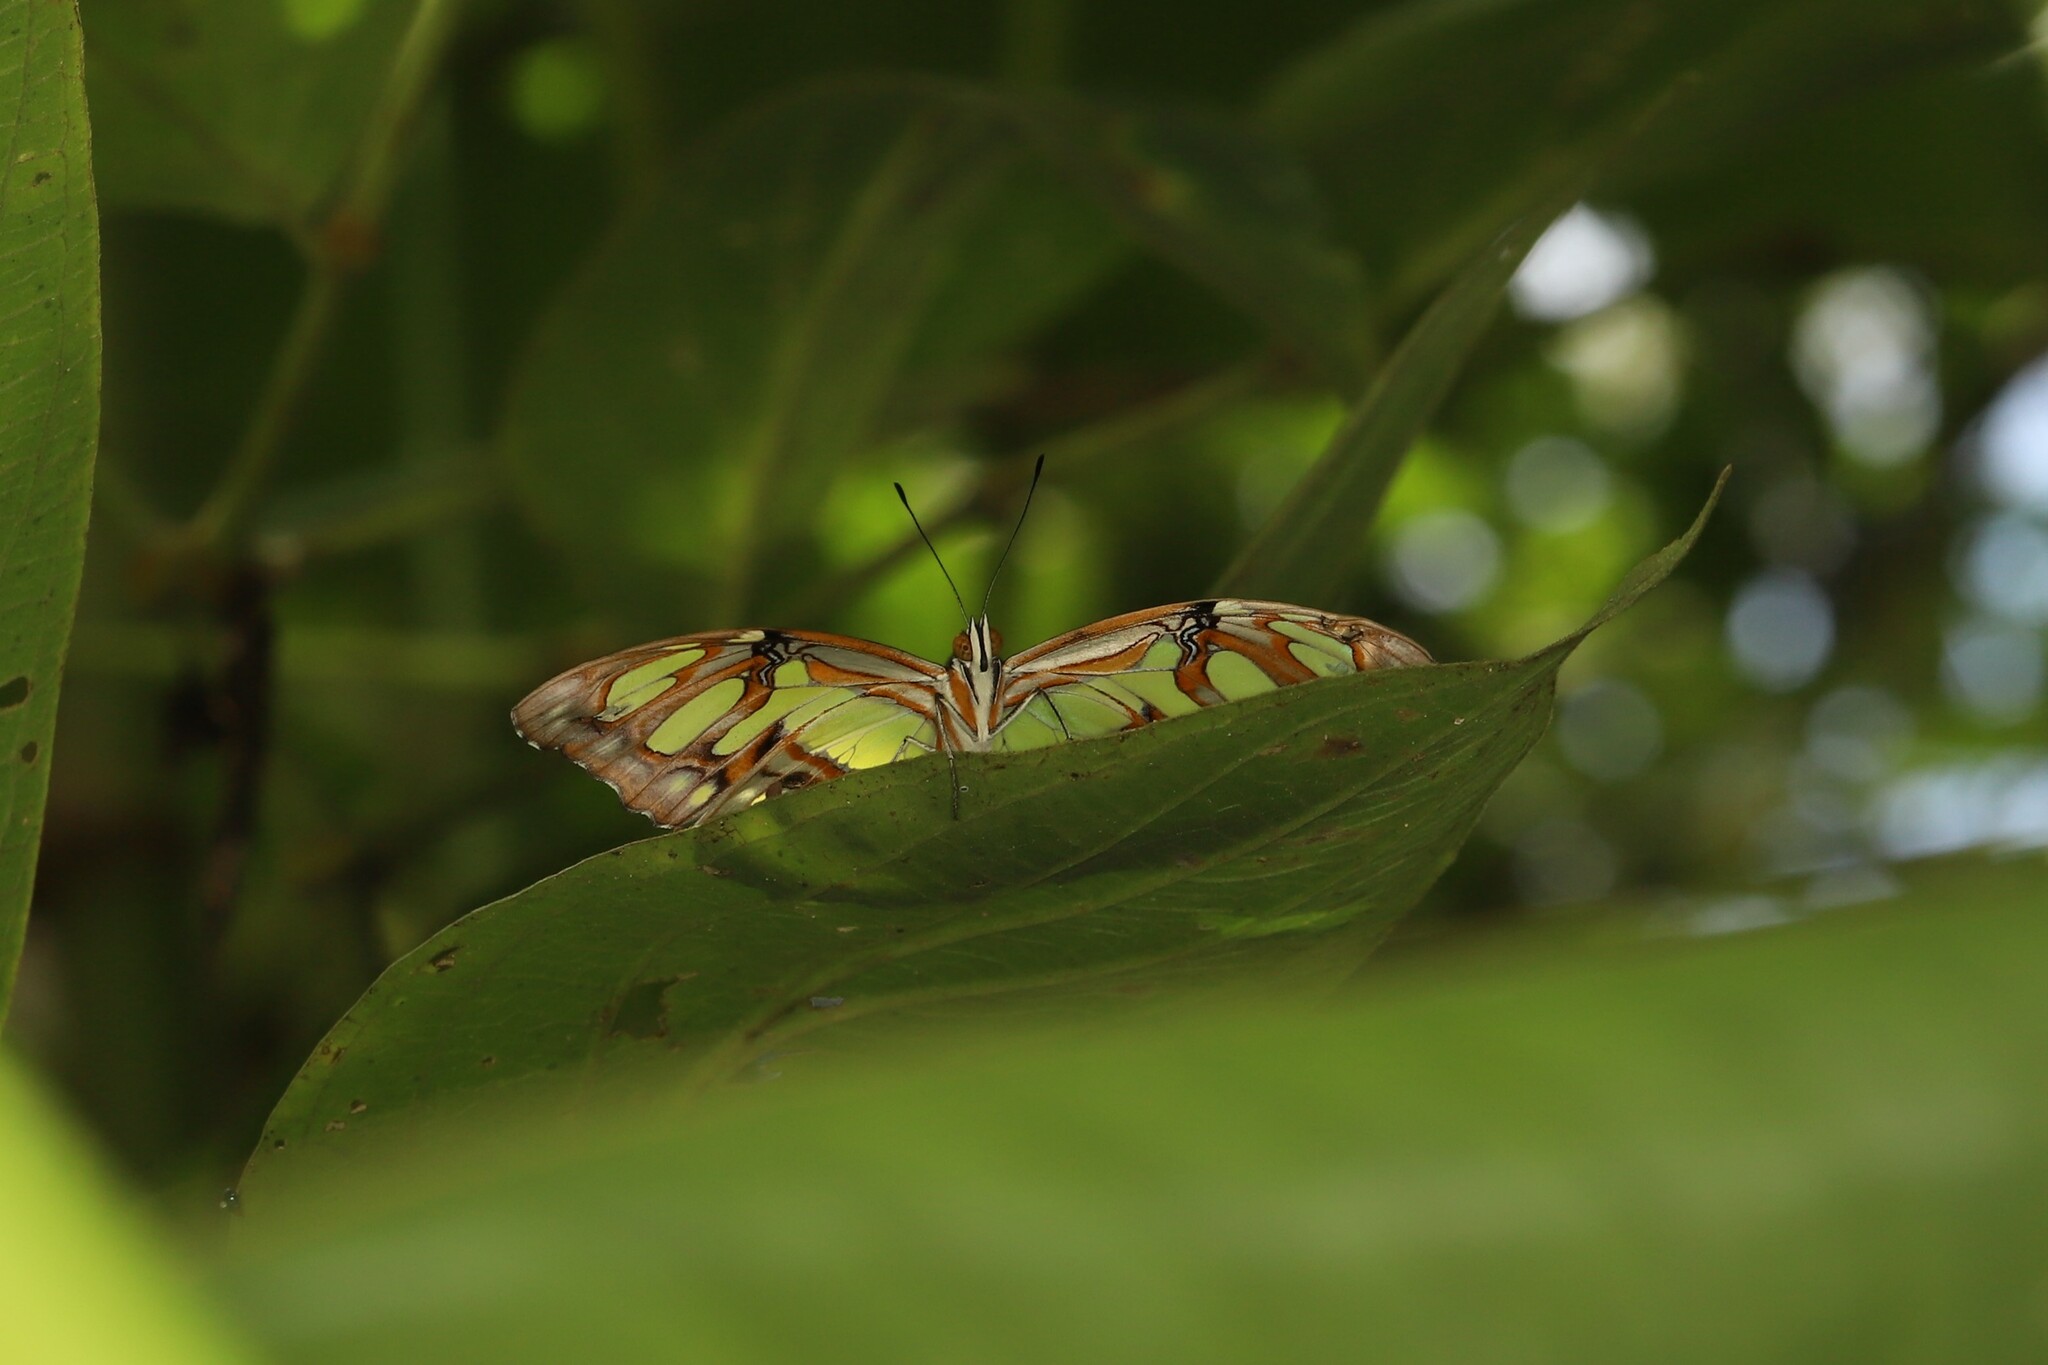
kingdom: Animalia
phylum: Arthropoda
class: Insecta
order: Lepidoptera
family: Nymphalidae
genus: Siproeta
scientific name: Siproeta stelenes
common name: Malachite
